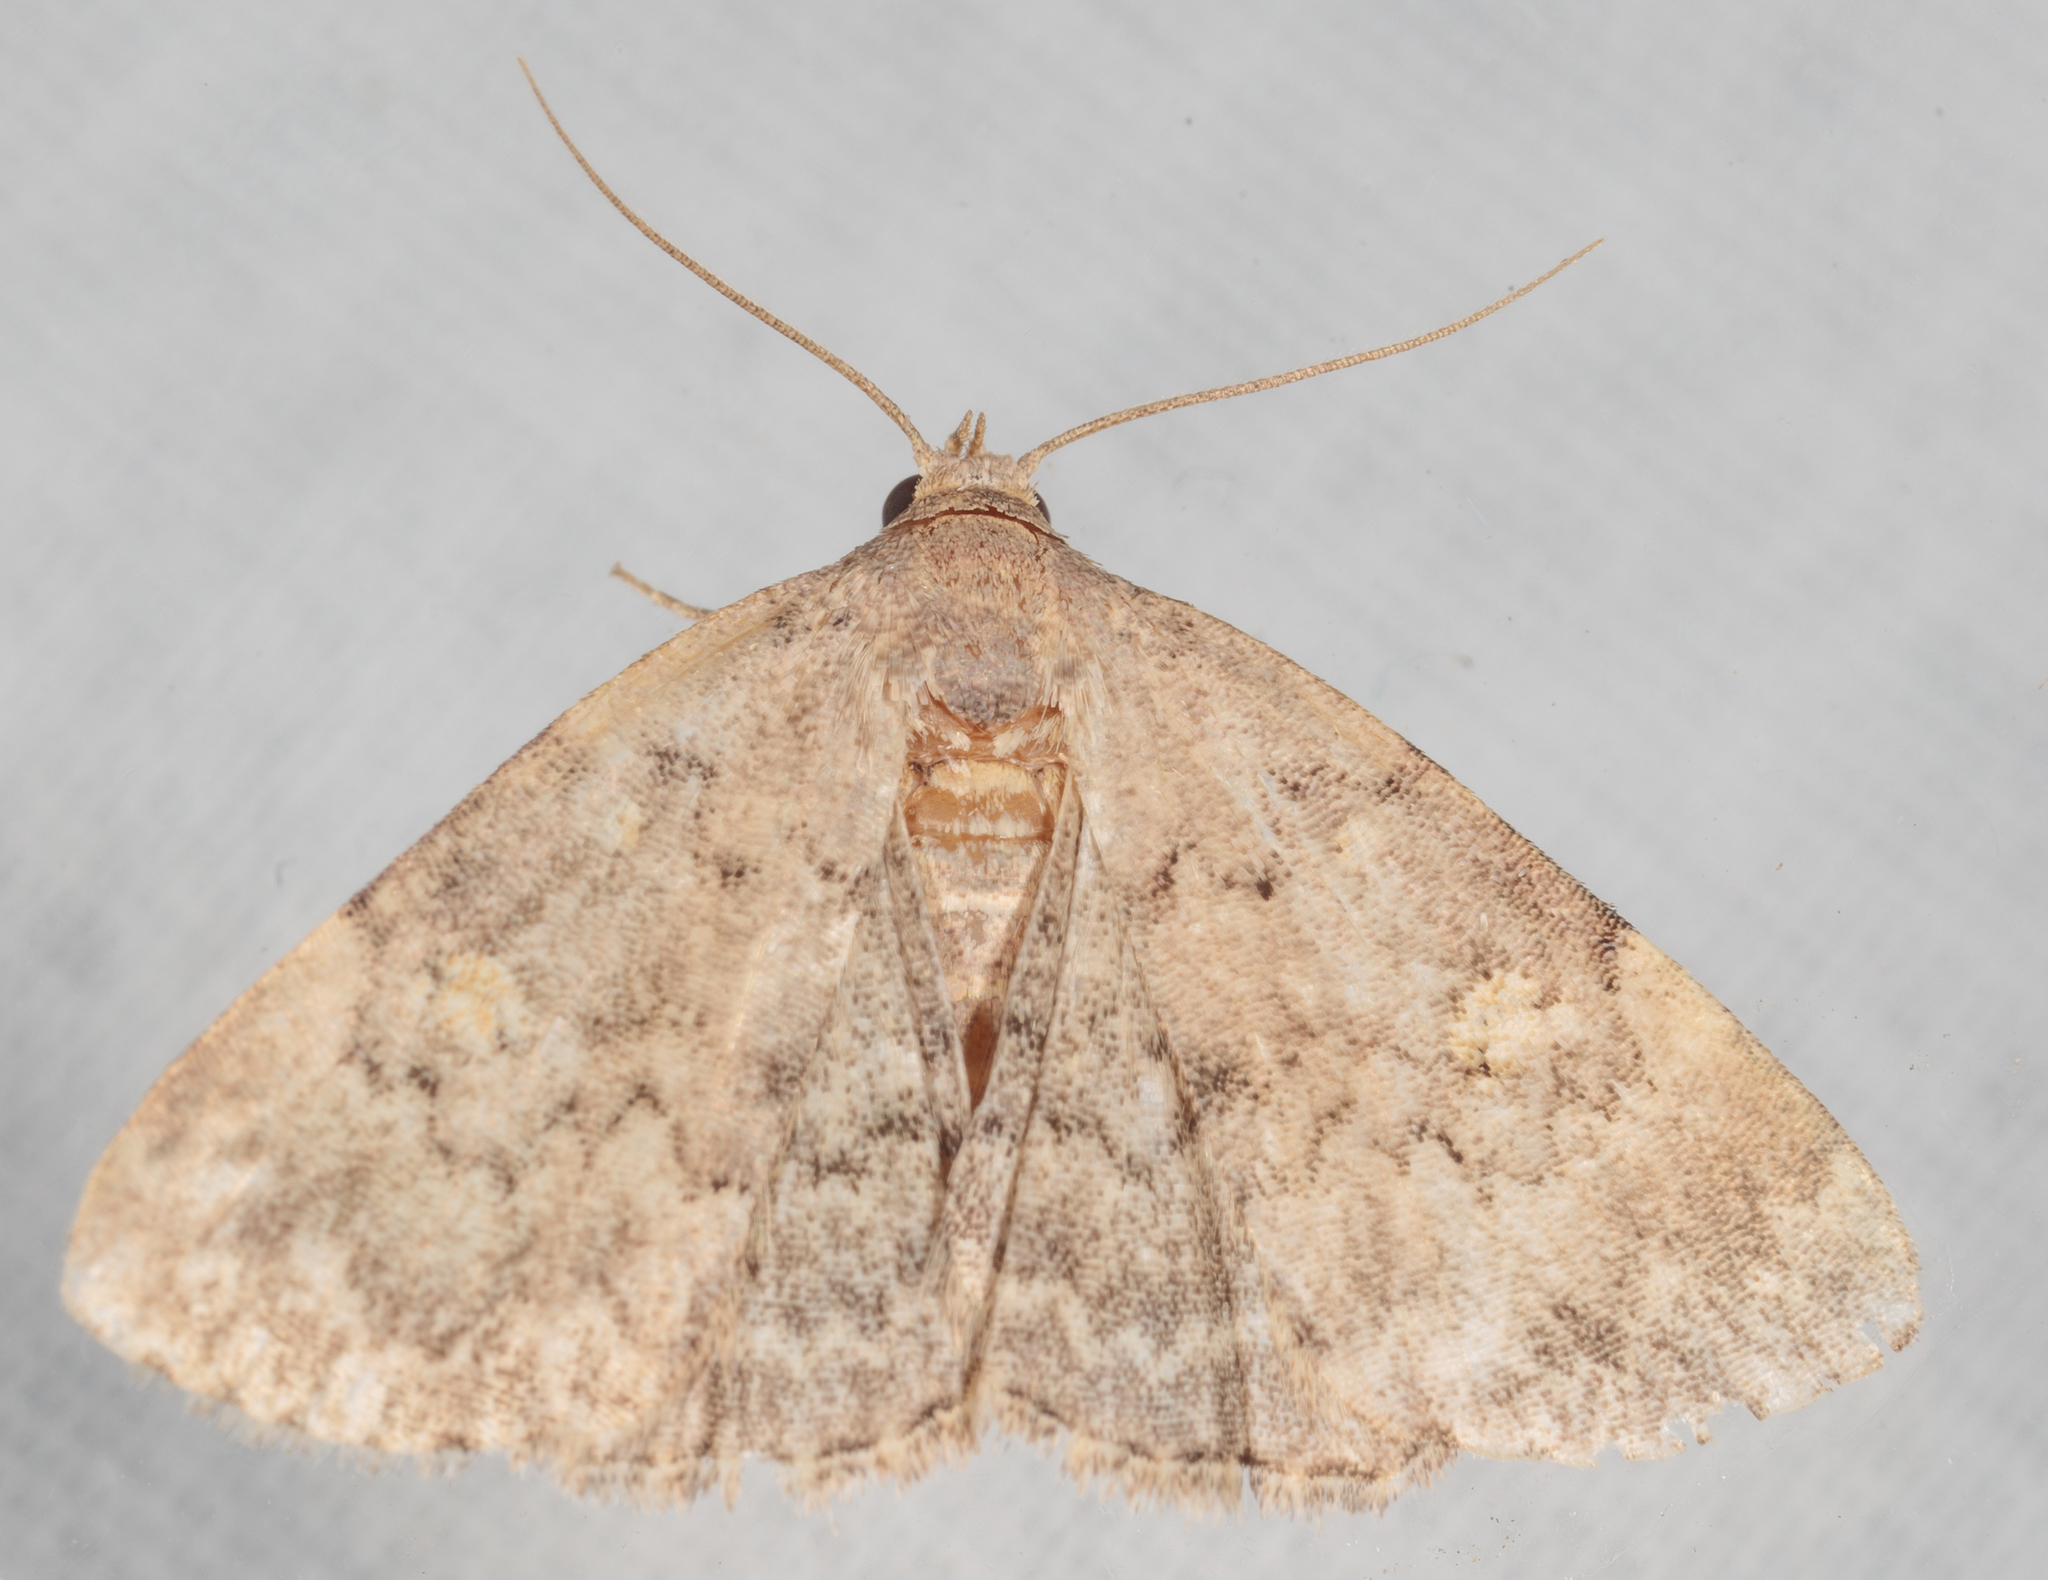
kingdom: Animalia
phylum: Arthropoda
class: Insecta
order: Lepidoptera
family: Erebidae
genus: Idia
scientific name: Idia aemula
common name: Common idia moth
